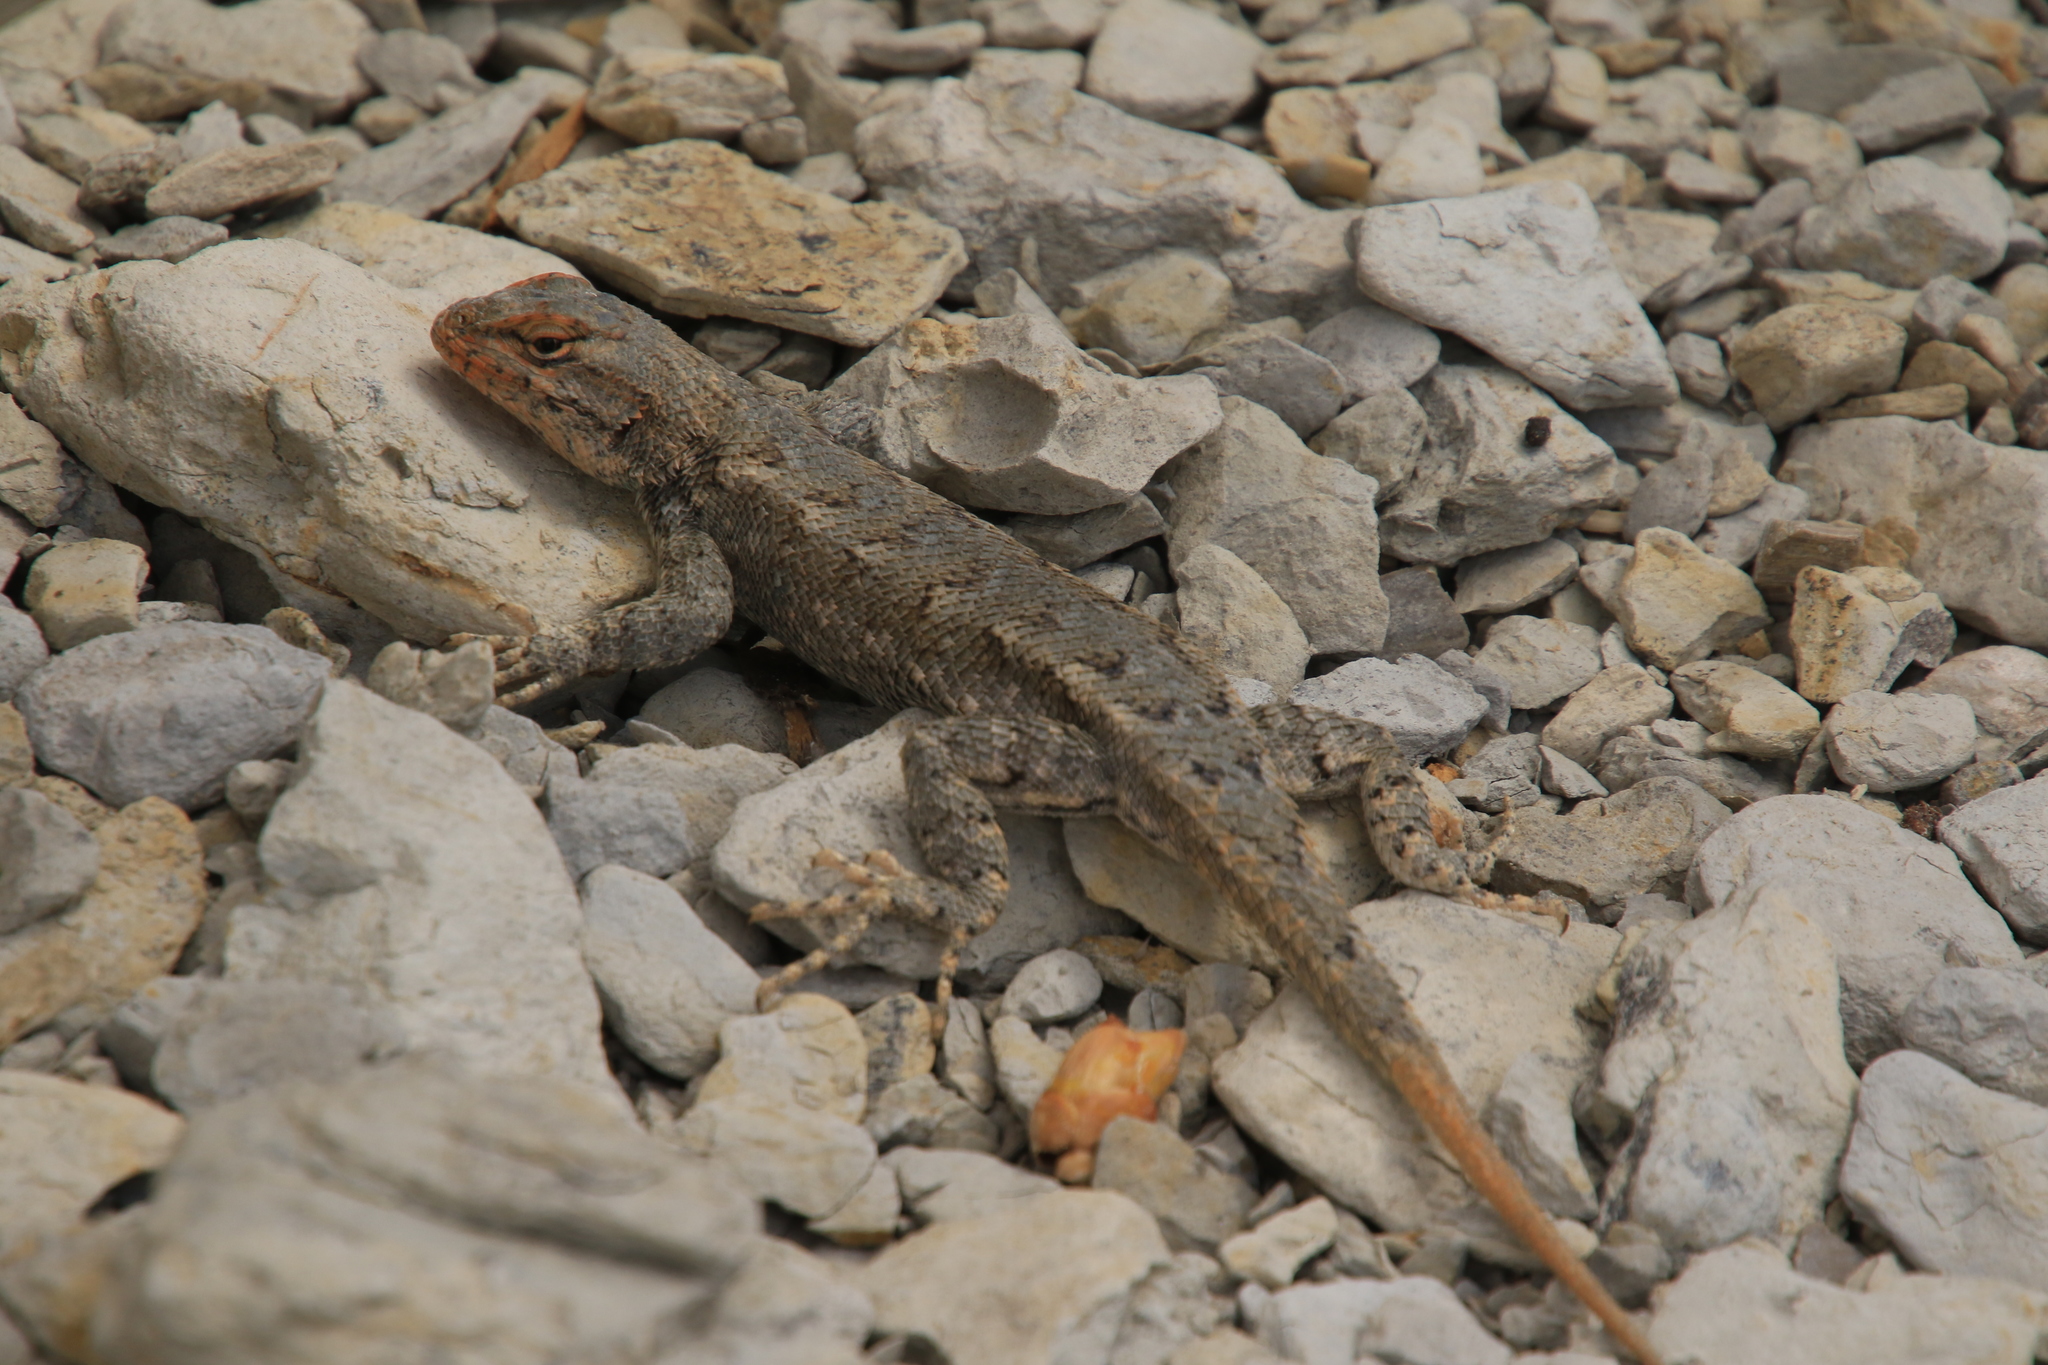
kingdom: Animalia
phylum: Chordata
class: Squamata
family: Phrynosomatidae
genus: Sceloporus
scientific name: Sceloporus consobrinus
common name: Southern prairie lizard
